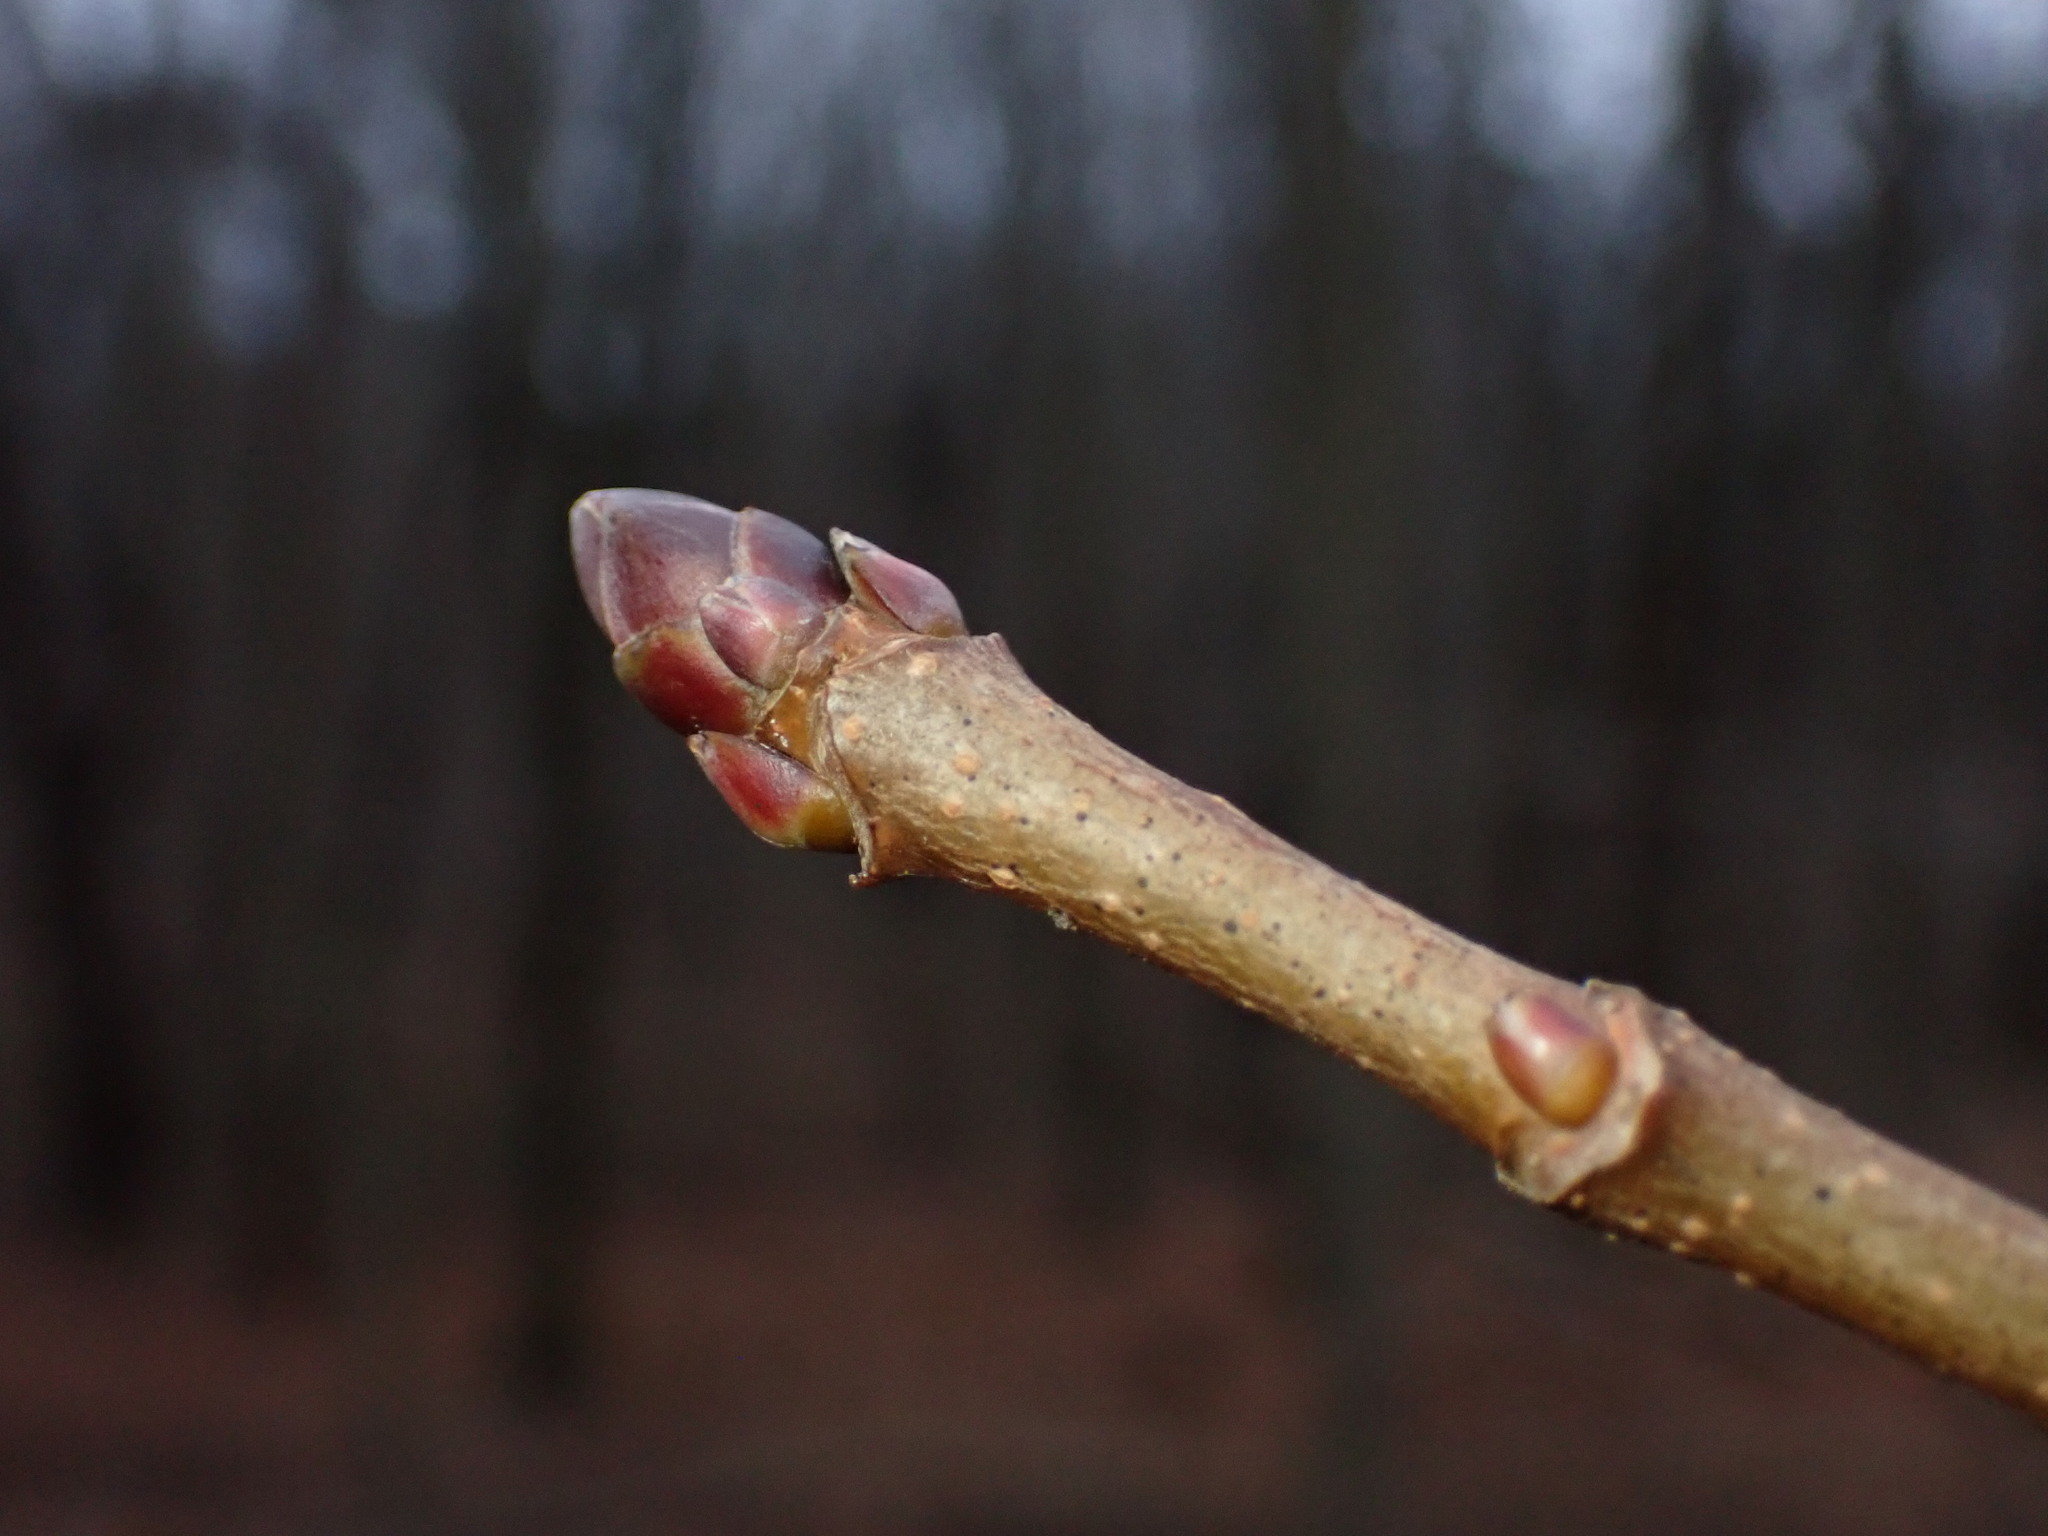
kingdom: Plantae
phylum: Tracheophyta
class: Magnoliopsida
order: Sapindales
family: Sapindaceae
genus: Acer
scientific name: Acer platanoides
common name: Norway maple
